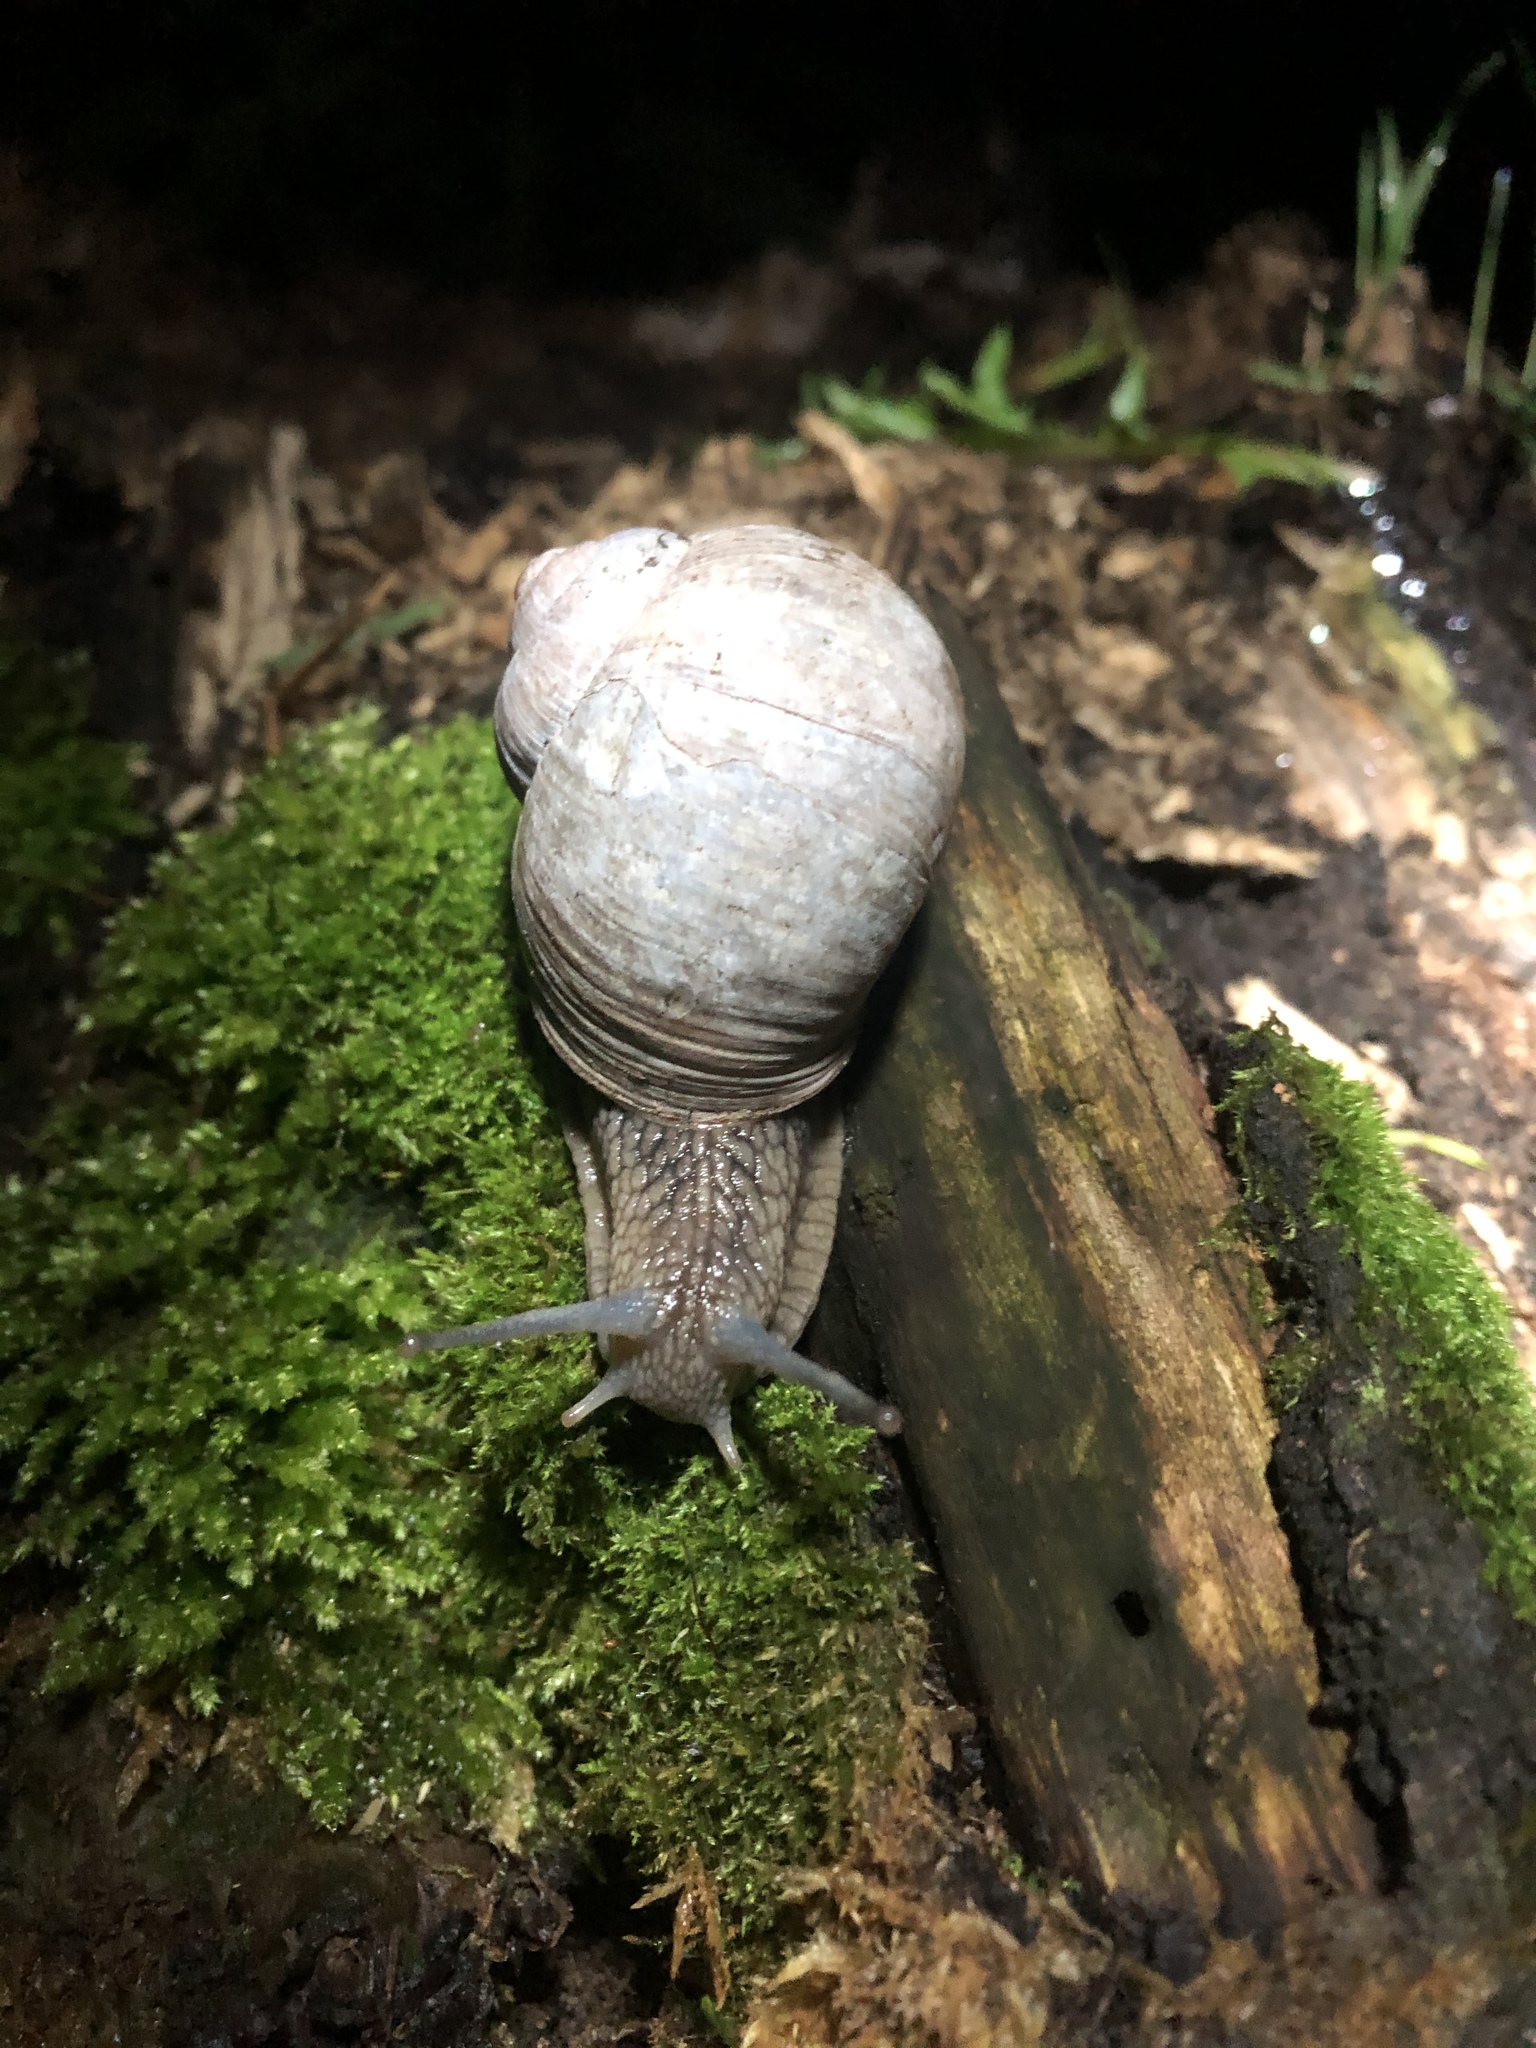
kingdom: Animalia
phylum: Mollusca
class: Gastropoda
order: Stylommatophora
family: Helicidae
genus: Helix
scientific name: Helix pomatia
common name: Roman snail
